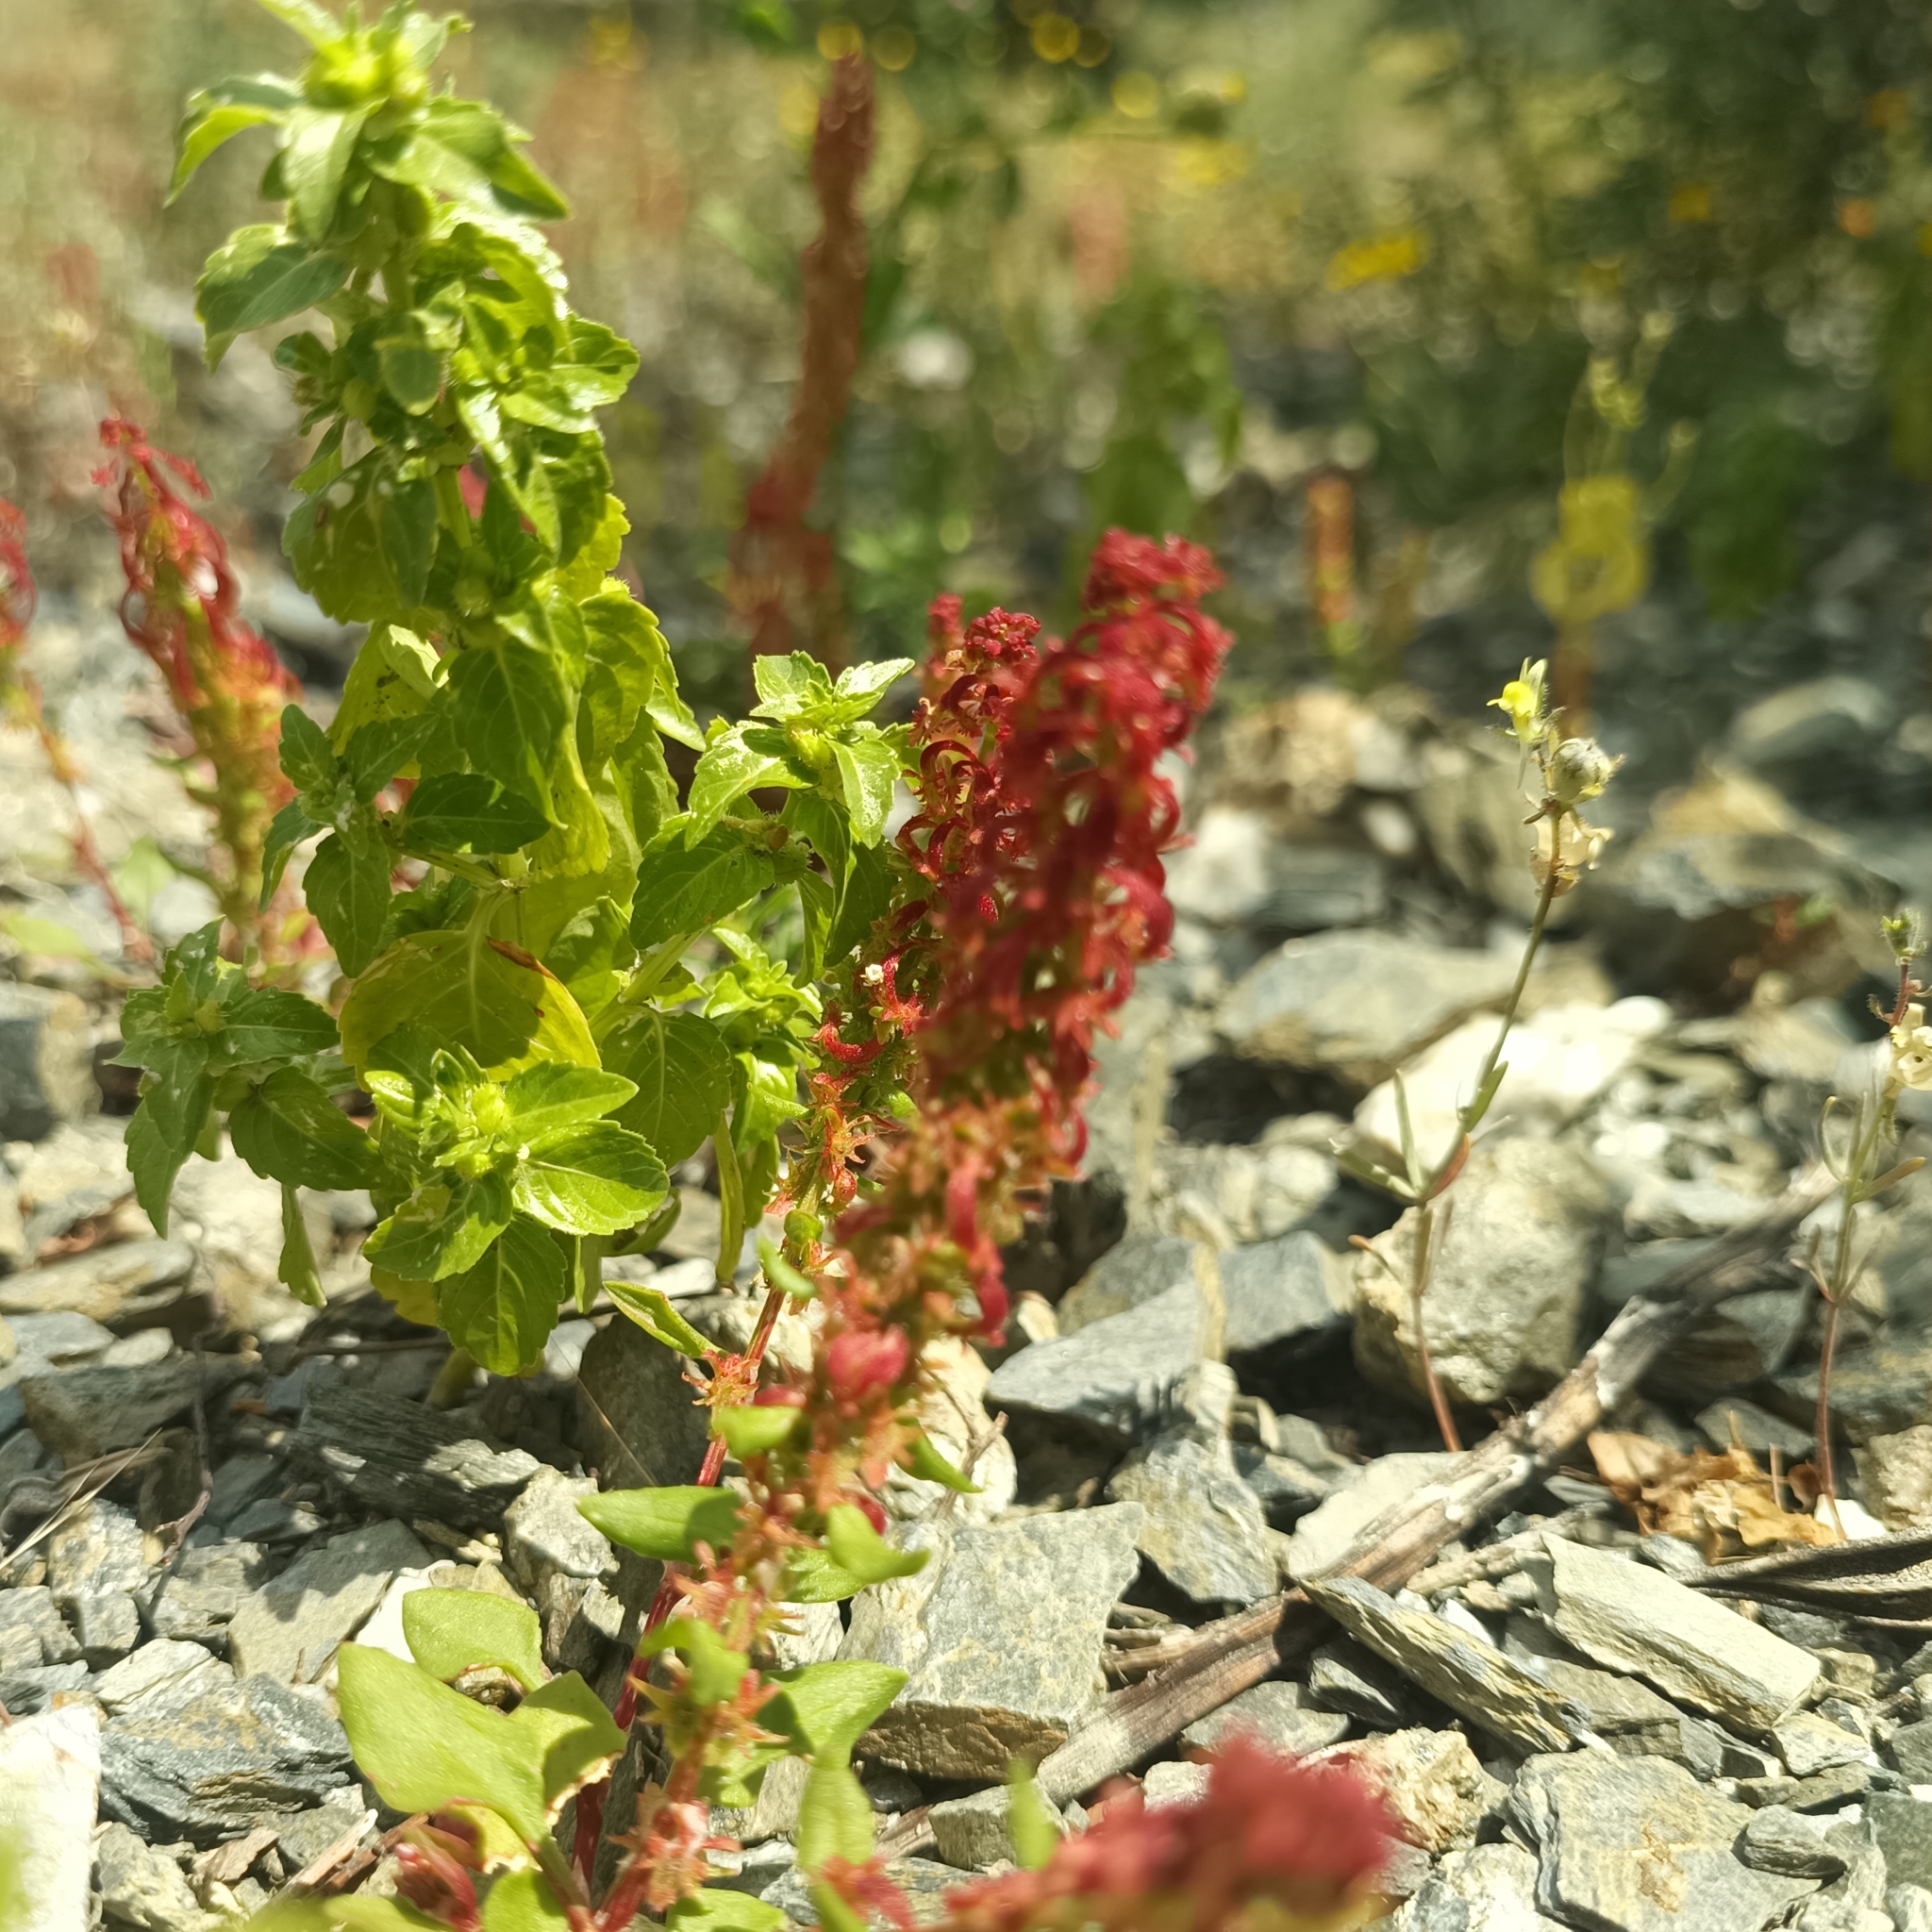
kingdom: Plantae
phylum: Tracheophyta
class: Magnoliopsida
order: Caryophyllales
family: Polygonaceae
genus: Rumex
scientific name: Rumex bucephalophorus
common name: Red dock
